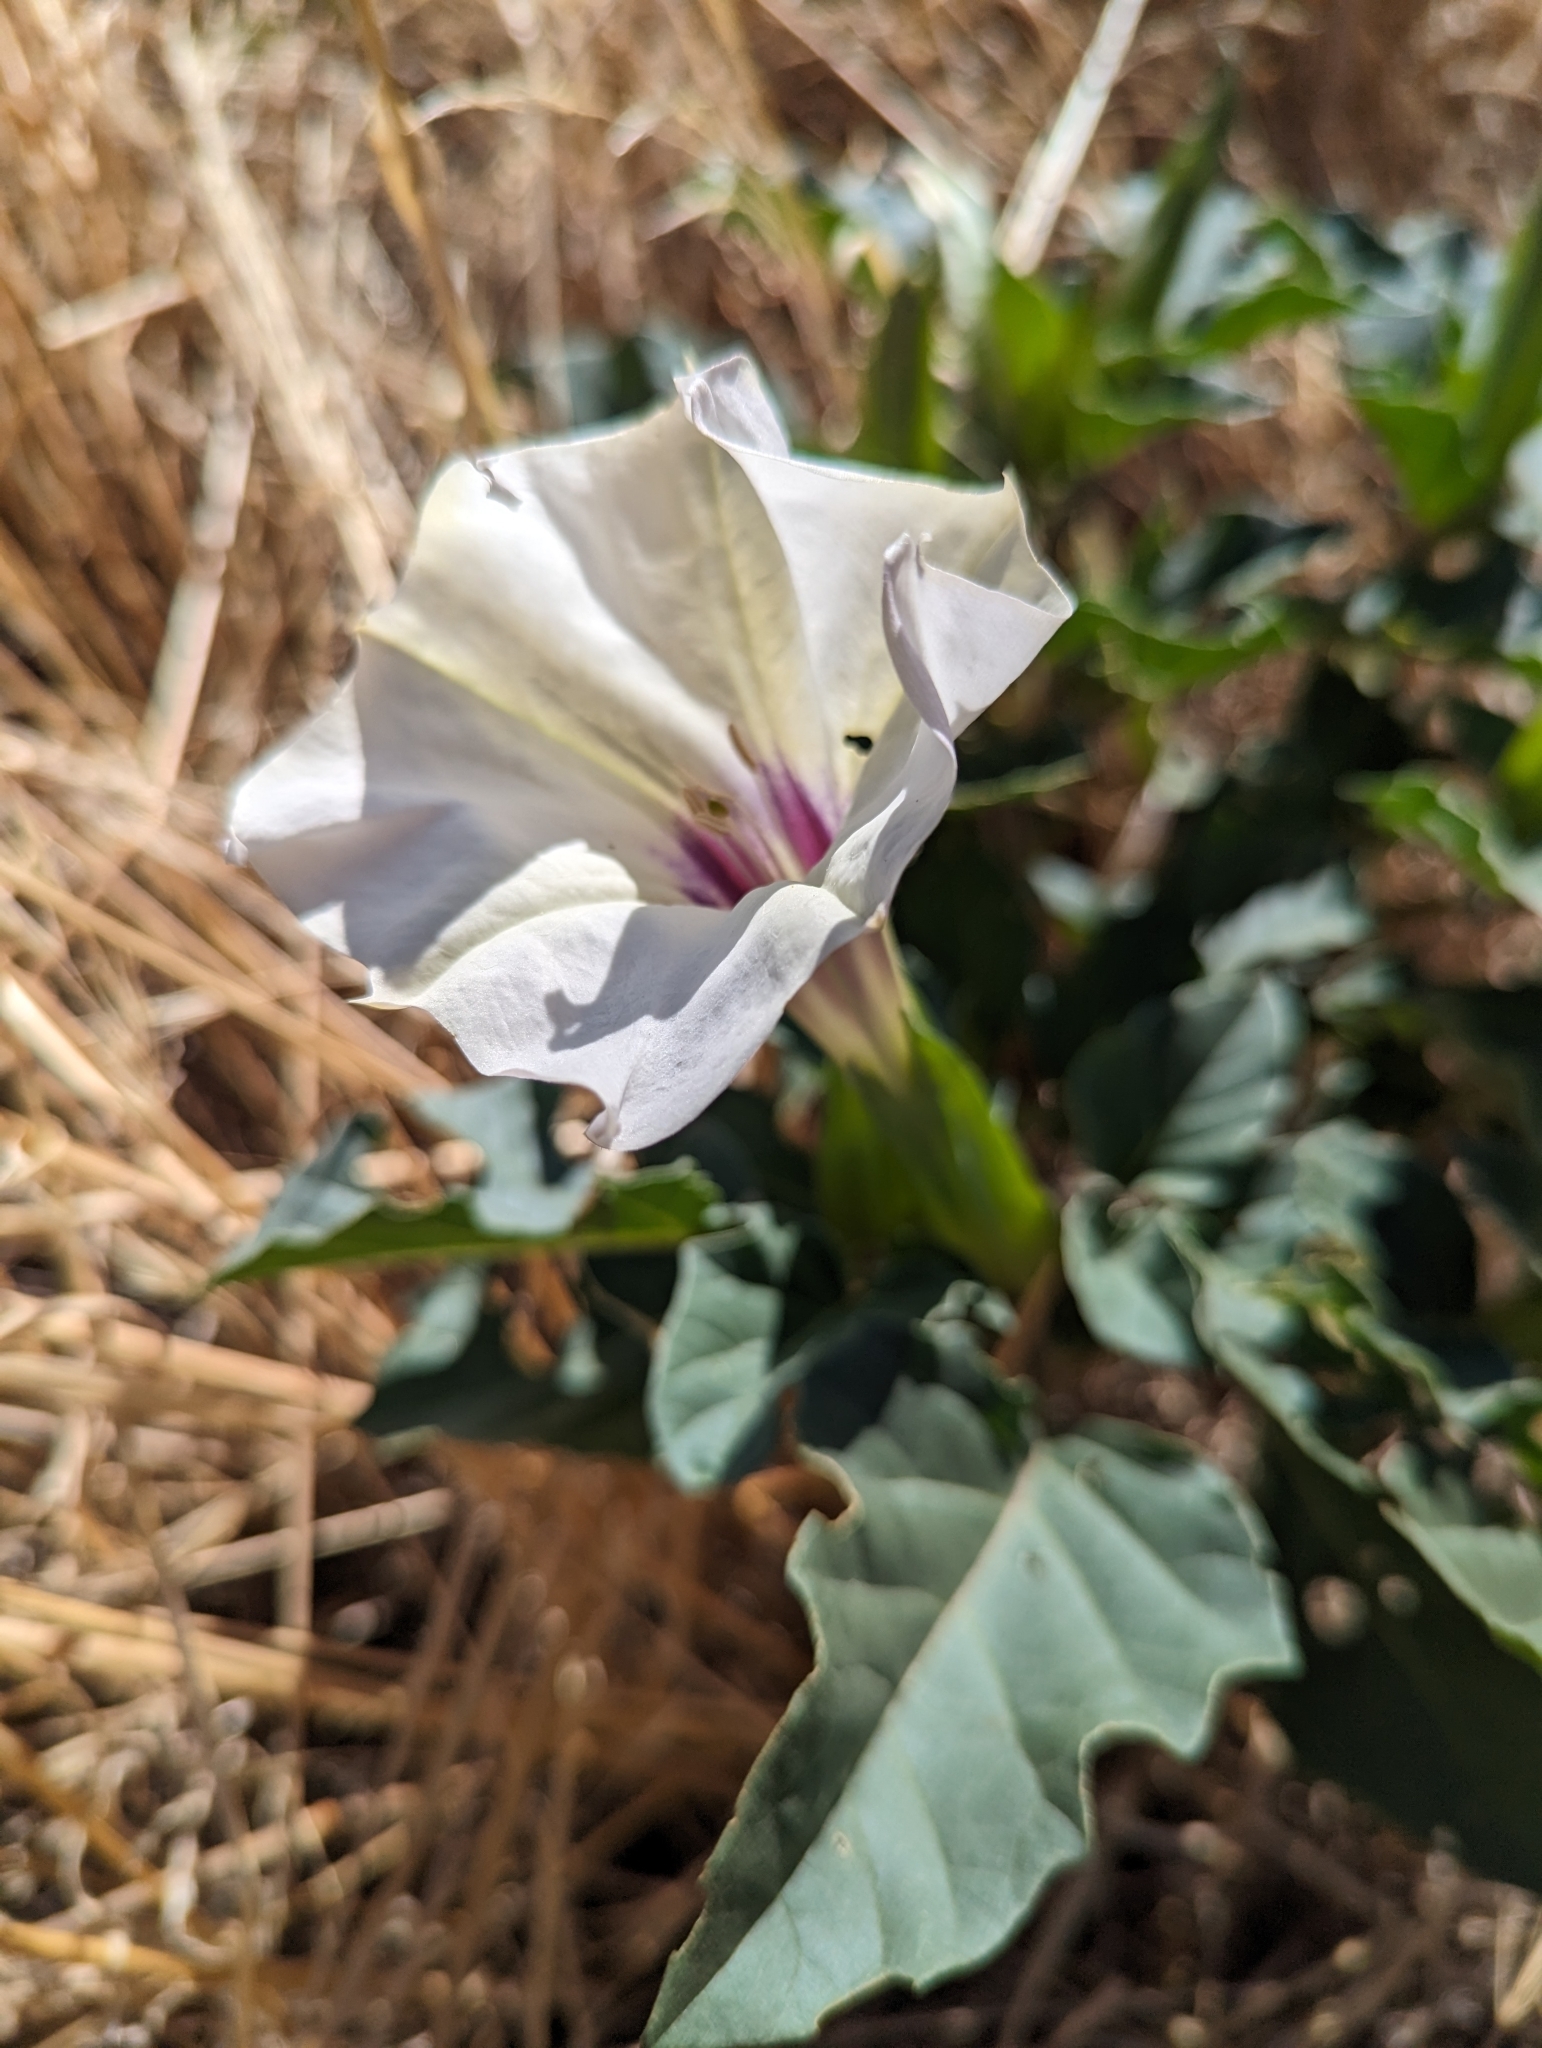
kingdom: Plantae
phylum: Tracheophyta
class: Magnoliopsida
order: Solanales
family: Solanaceae
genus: Datura
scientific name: Datura discolor
